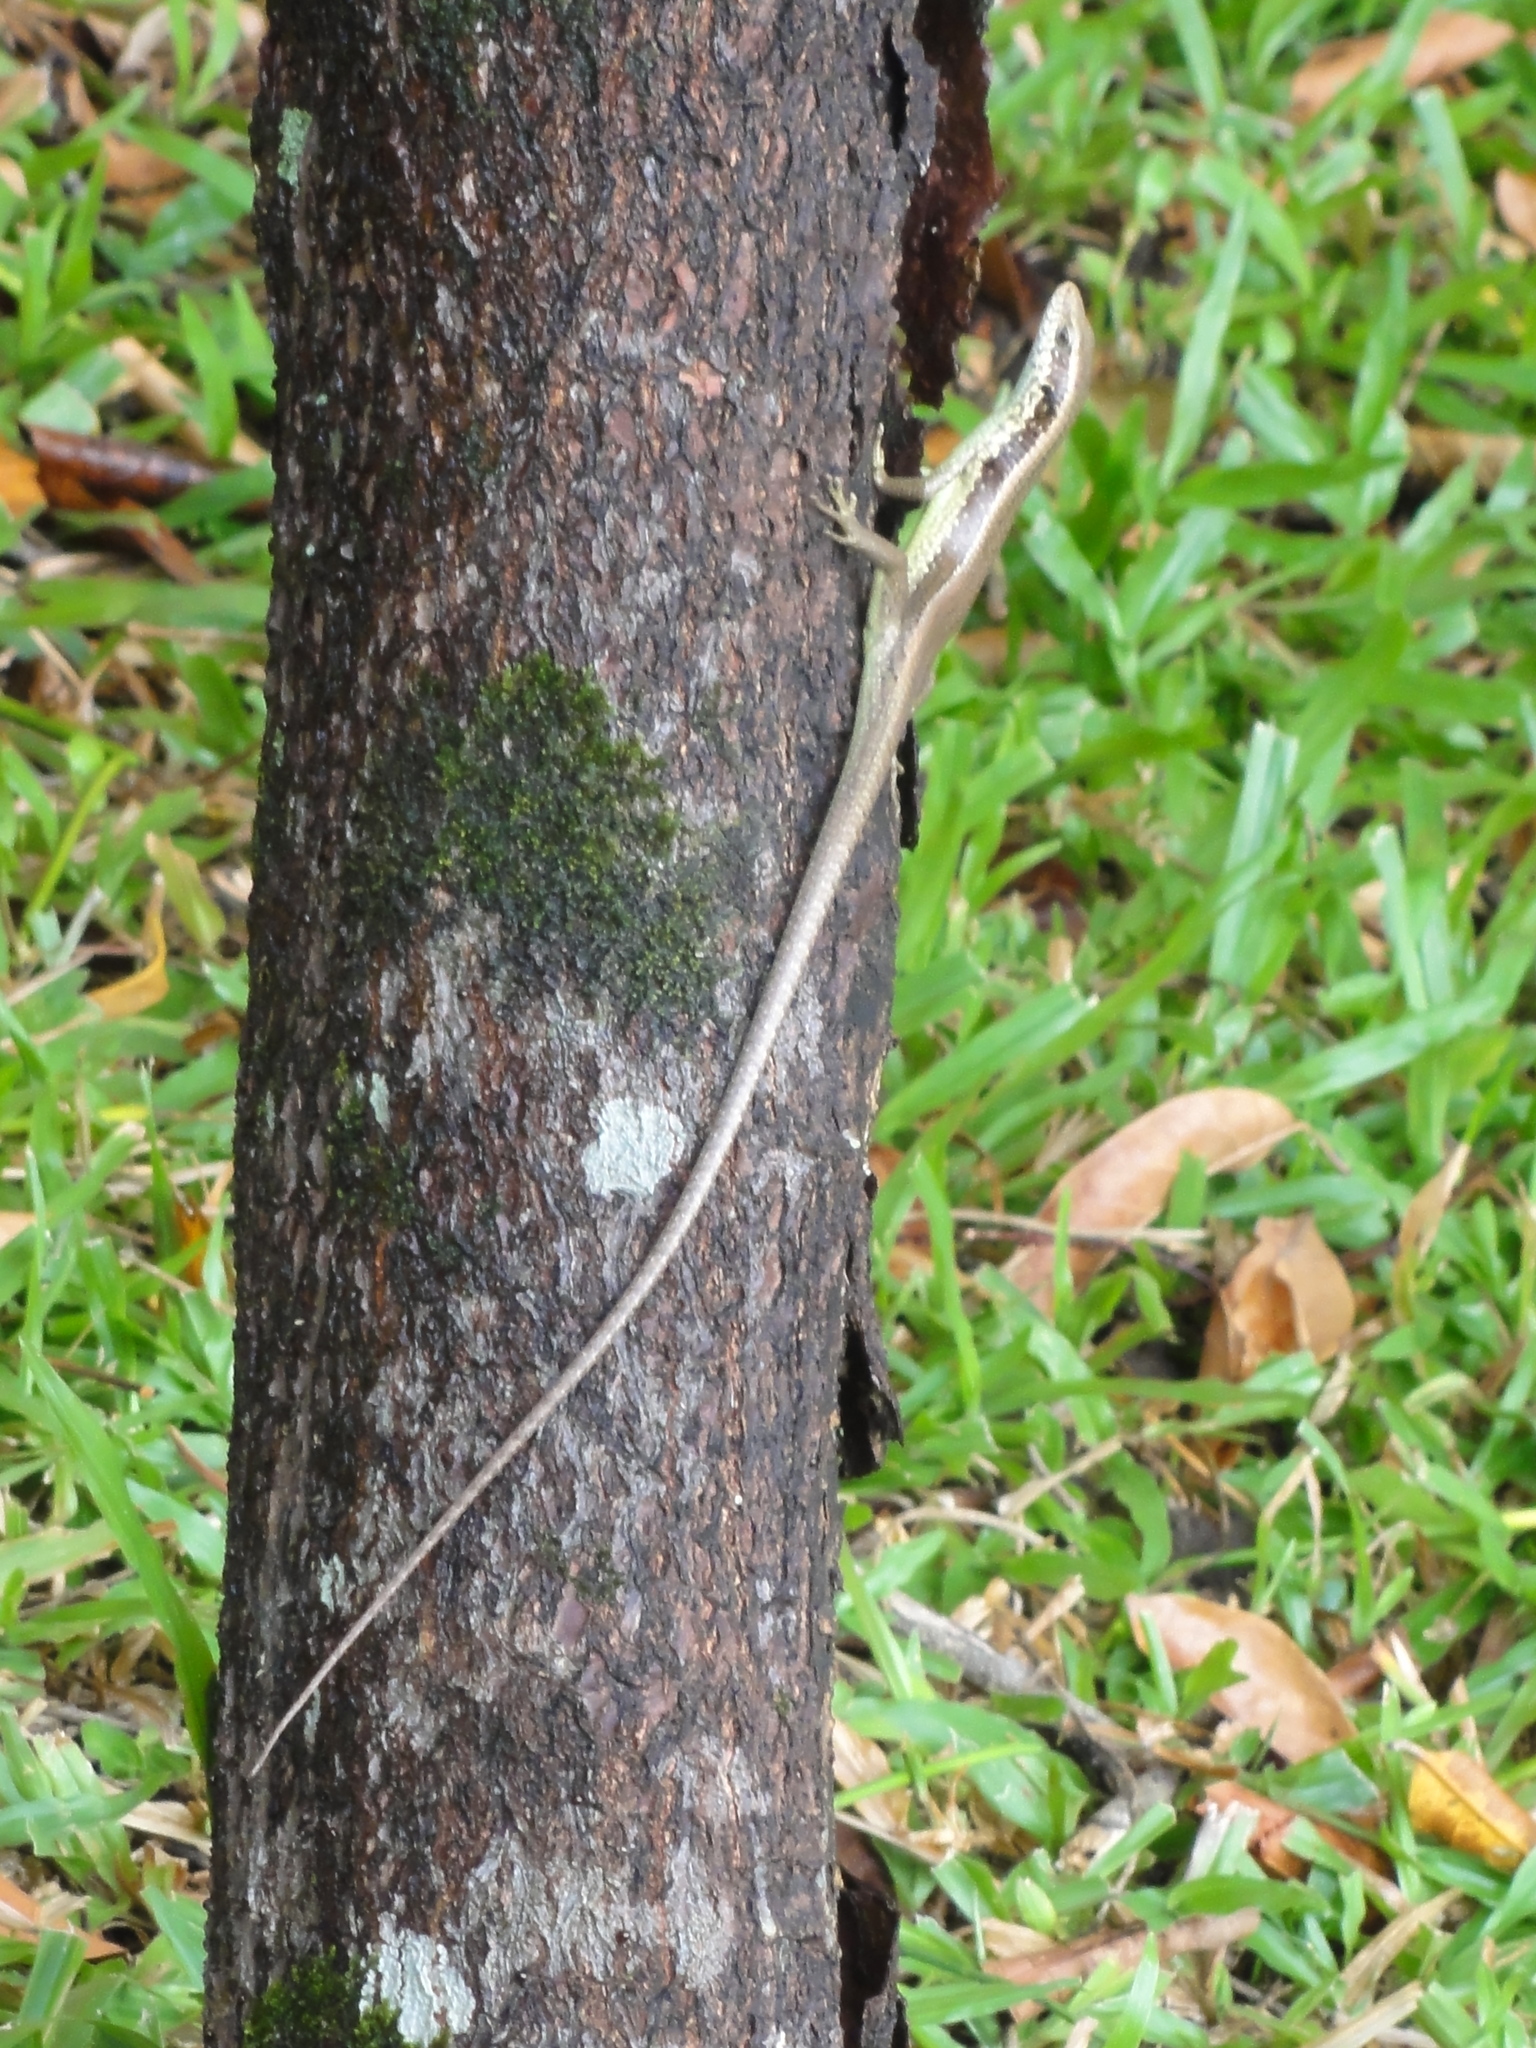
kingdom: Animalia
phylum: Chordata
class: Squamata
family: Scincidae
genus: Eutropis
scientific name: Eutropis longicaudata
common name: Long-tailed sun skink
